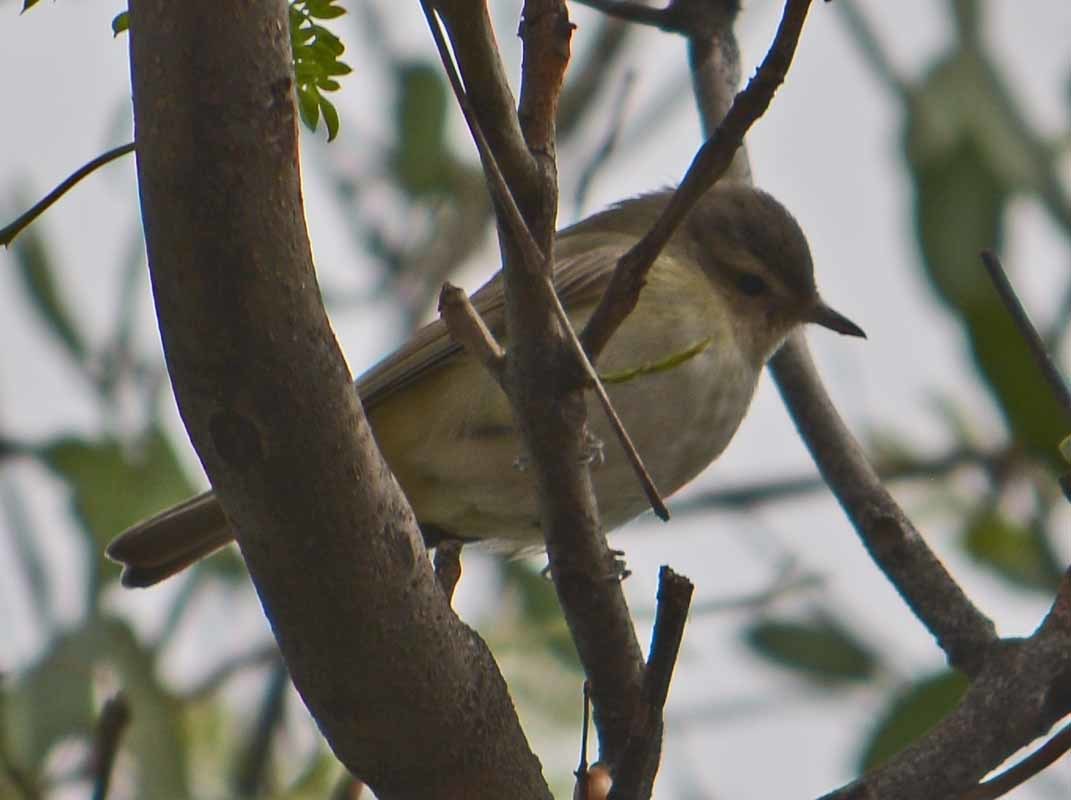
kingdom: Animalia
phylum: Chordata
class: Aves
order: Passeriformes
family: Vireonidae
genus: Vireo
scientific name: Vireo gilvus
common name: Warbling vireo
